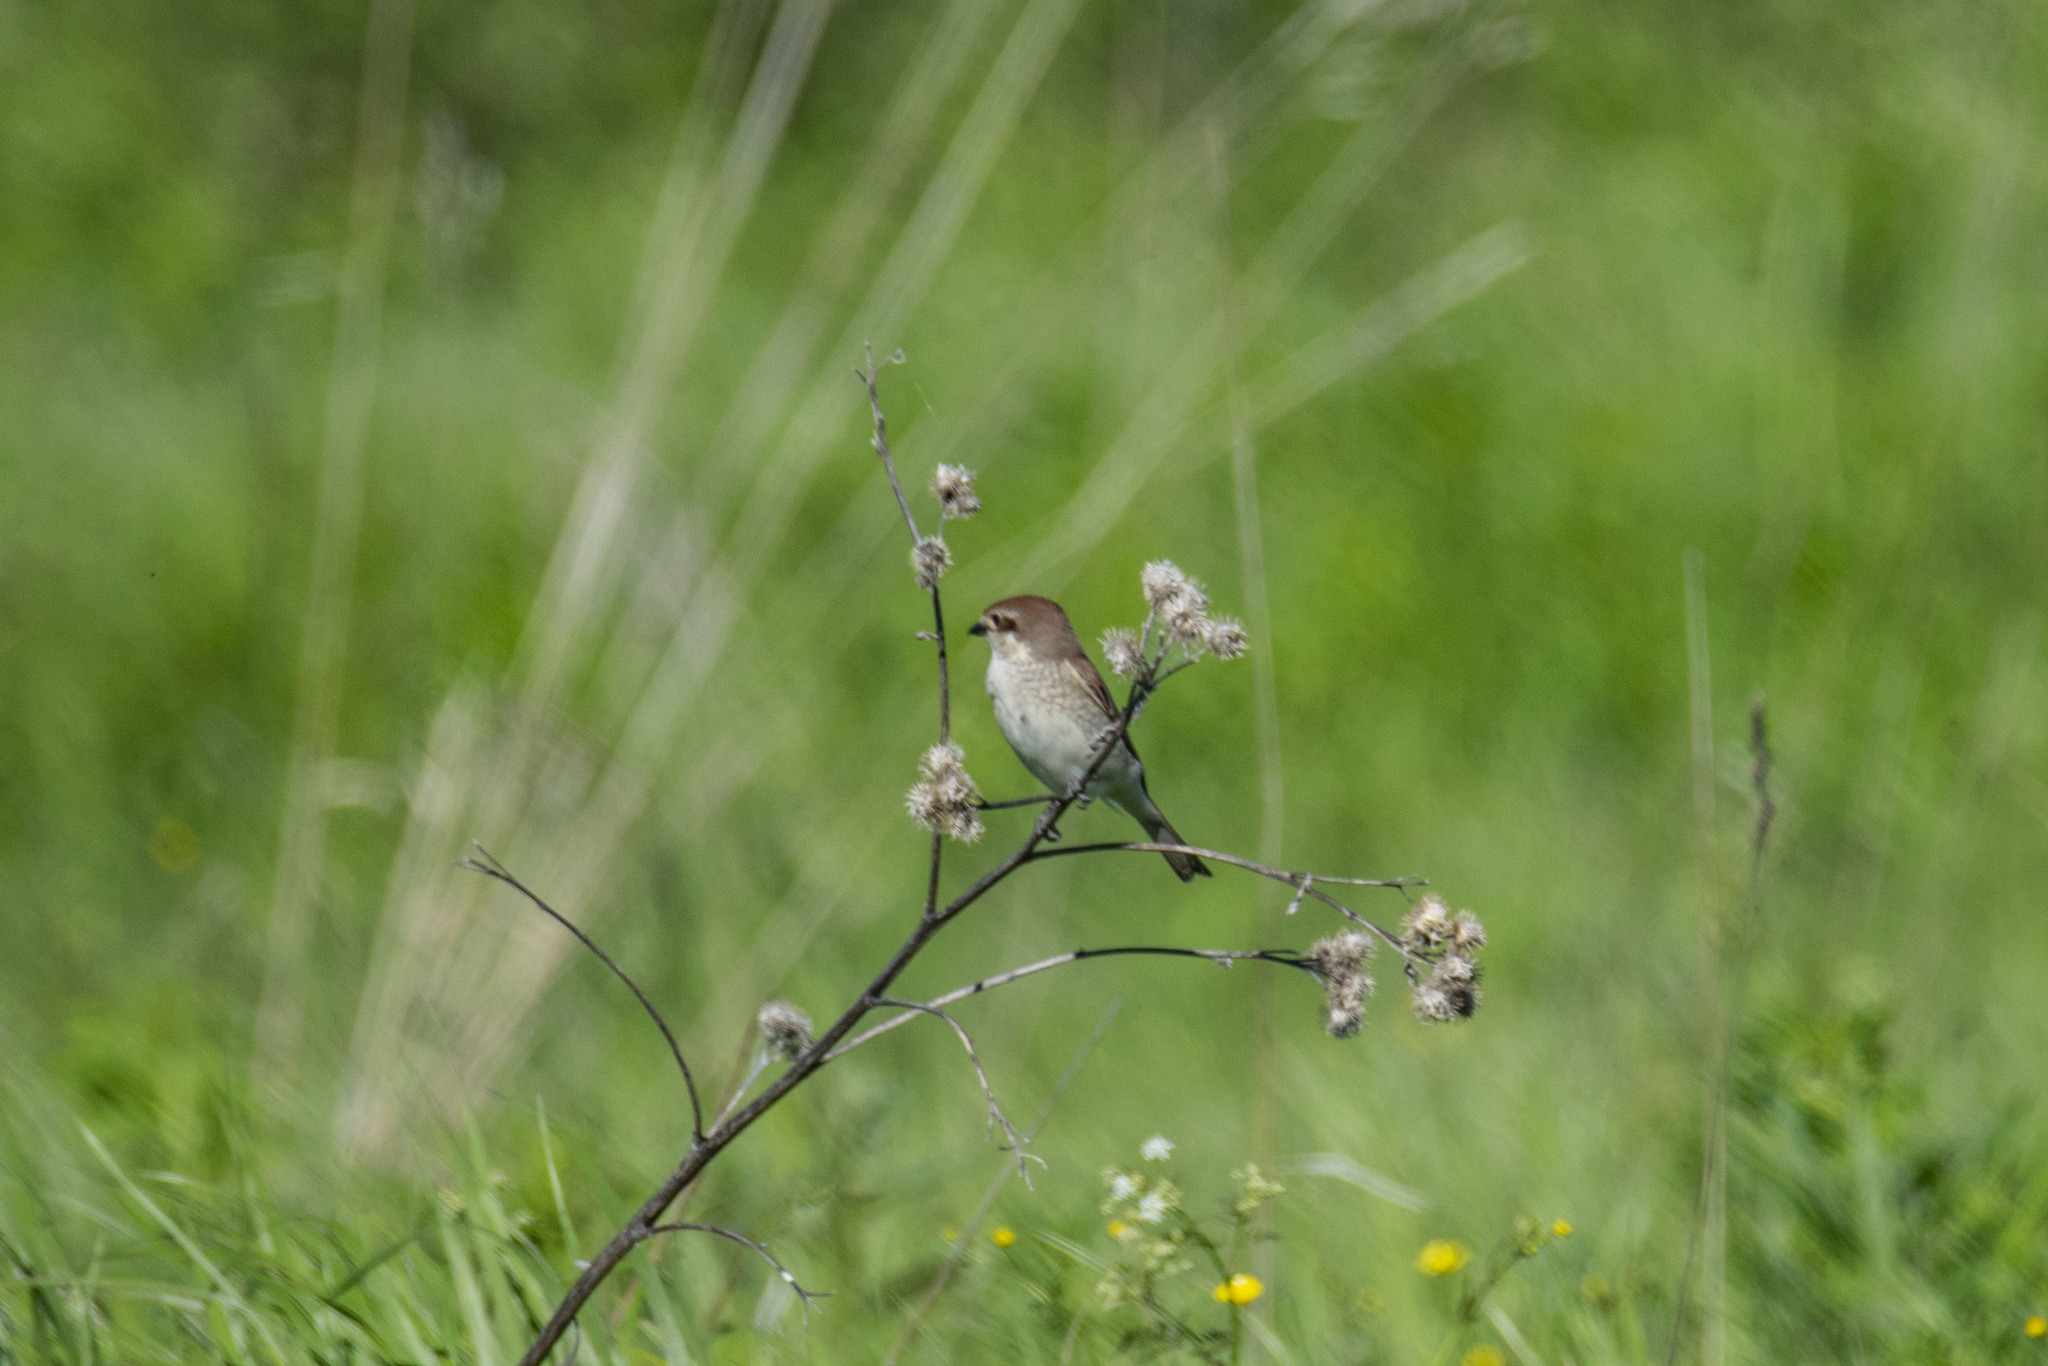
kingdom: Animalia
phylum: Chordata
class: Aves
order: Passeriformes
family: Laniidae
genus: Lanius
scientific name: Lanius collurio
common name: Red-backed shrike
